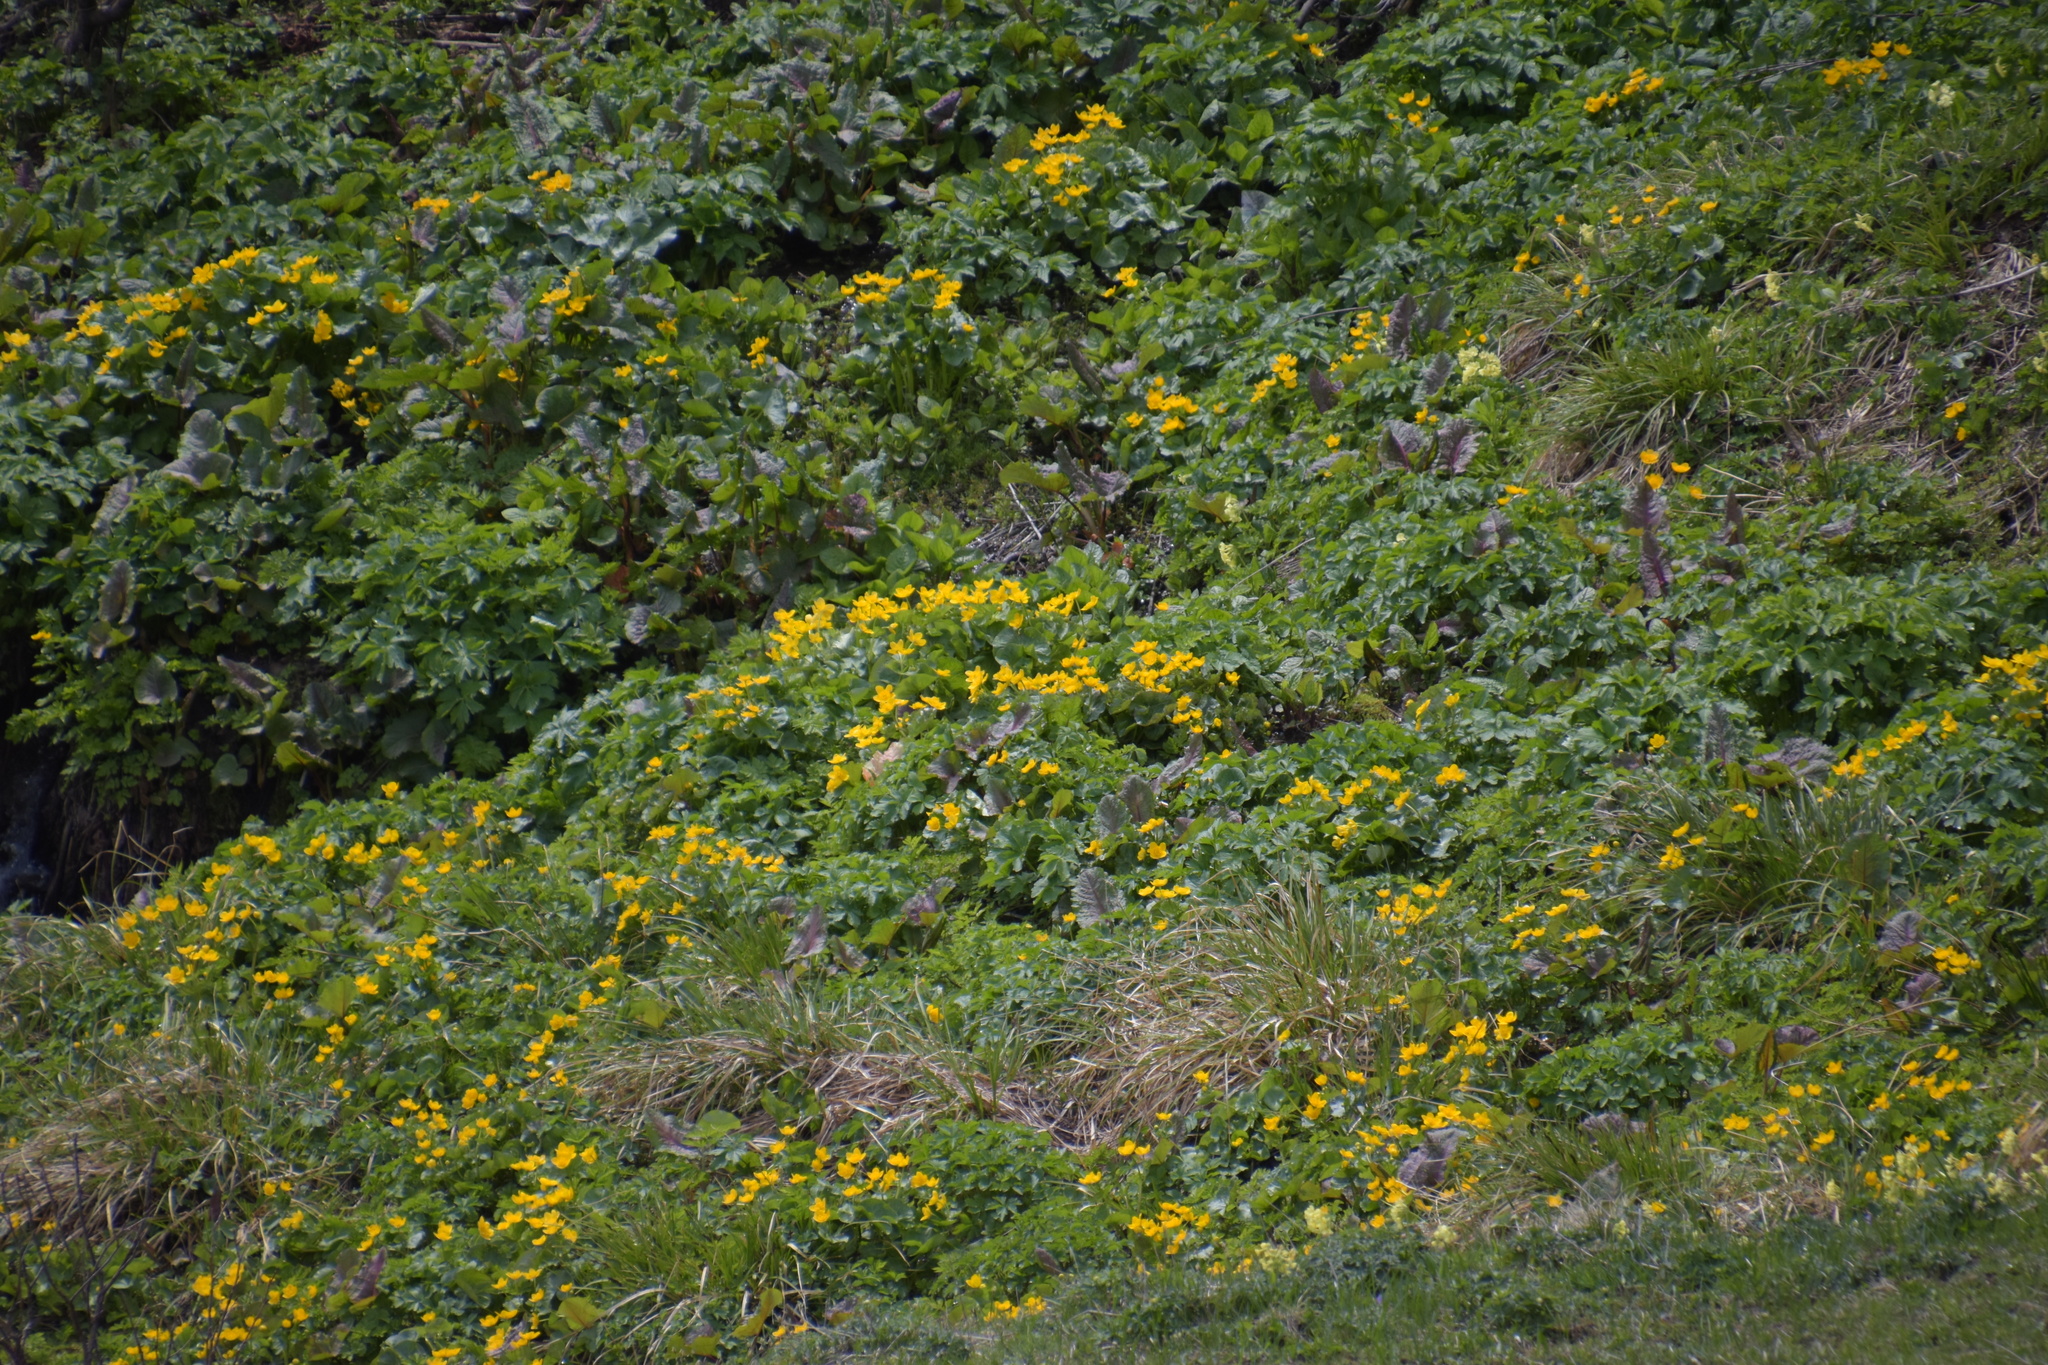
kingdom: Plantae
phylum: Tracheophyta
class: Magnoliopsida
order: Ranunculales
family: Ranunculaceae
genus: Caltha
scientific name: Caltha palustris
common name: Marsh marigold
